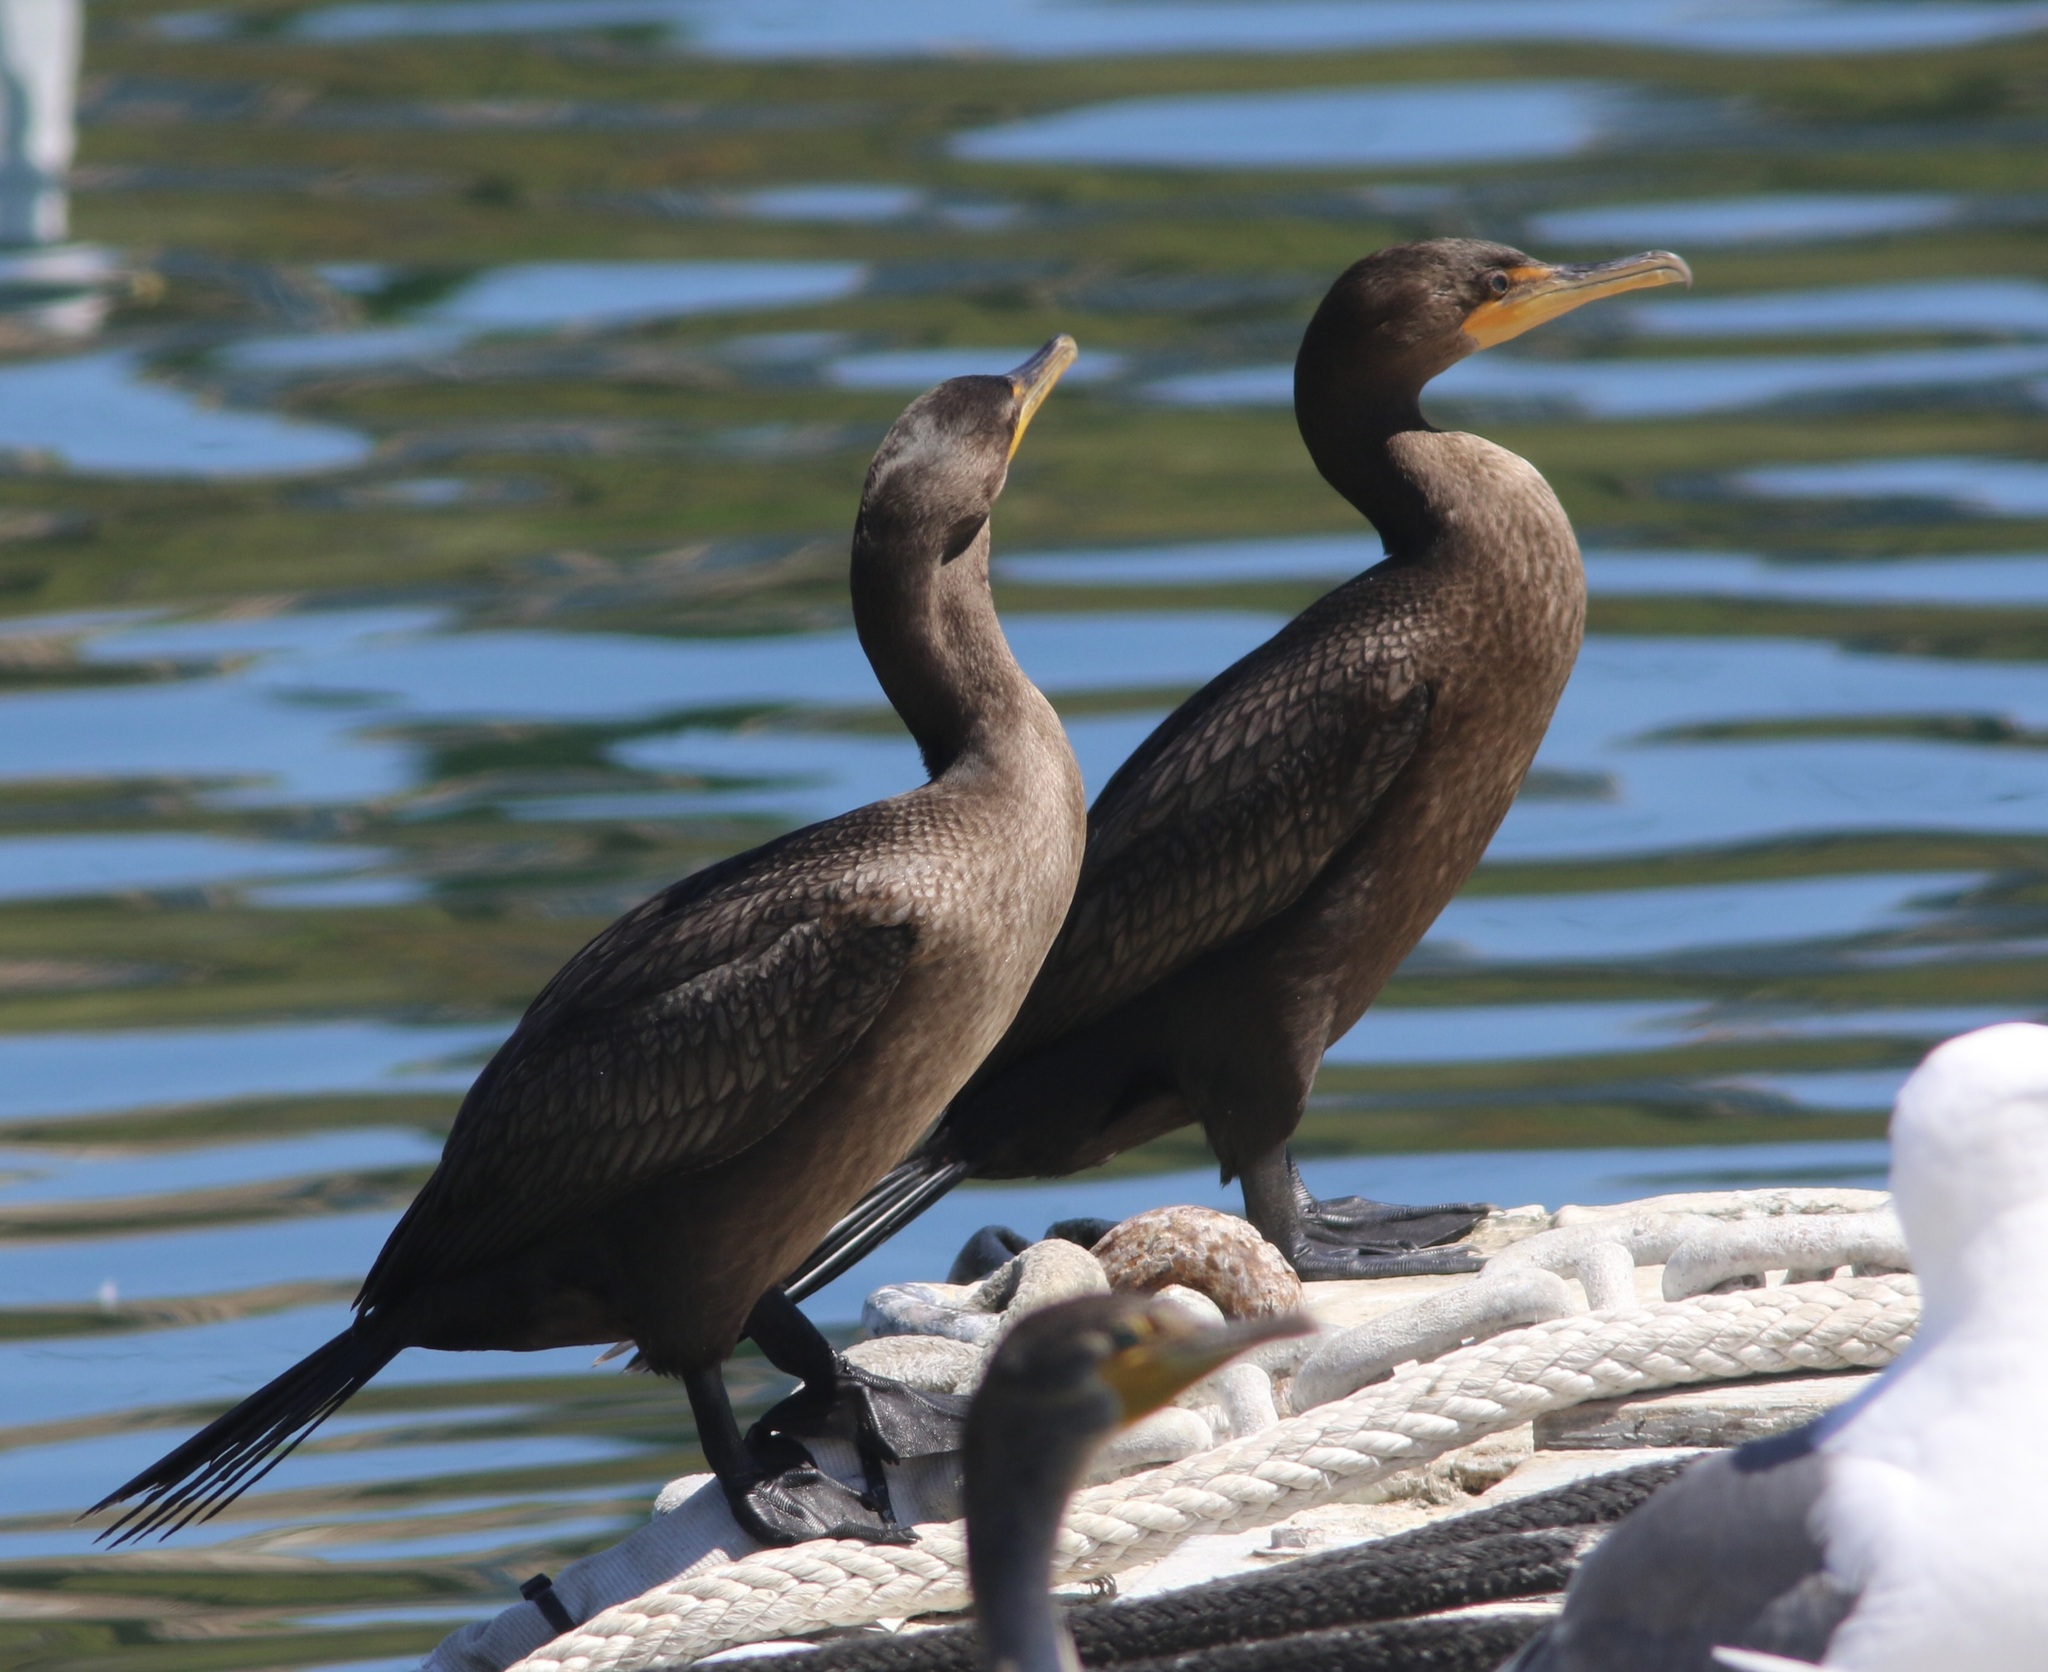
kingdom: Animalia
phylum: Chordata
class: Aves
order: Suliformes
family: Phalacrocoracidae
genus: Phalacrocorax
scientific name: Phalacrocorax auritus
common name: Double-crested cormorant
